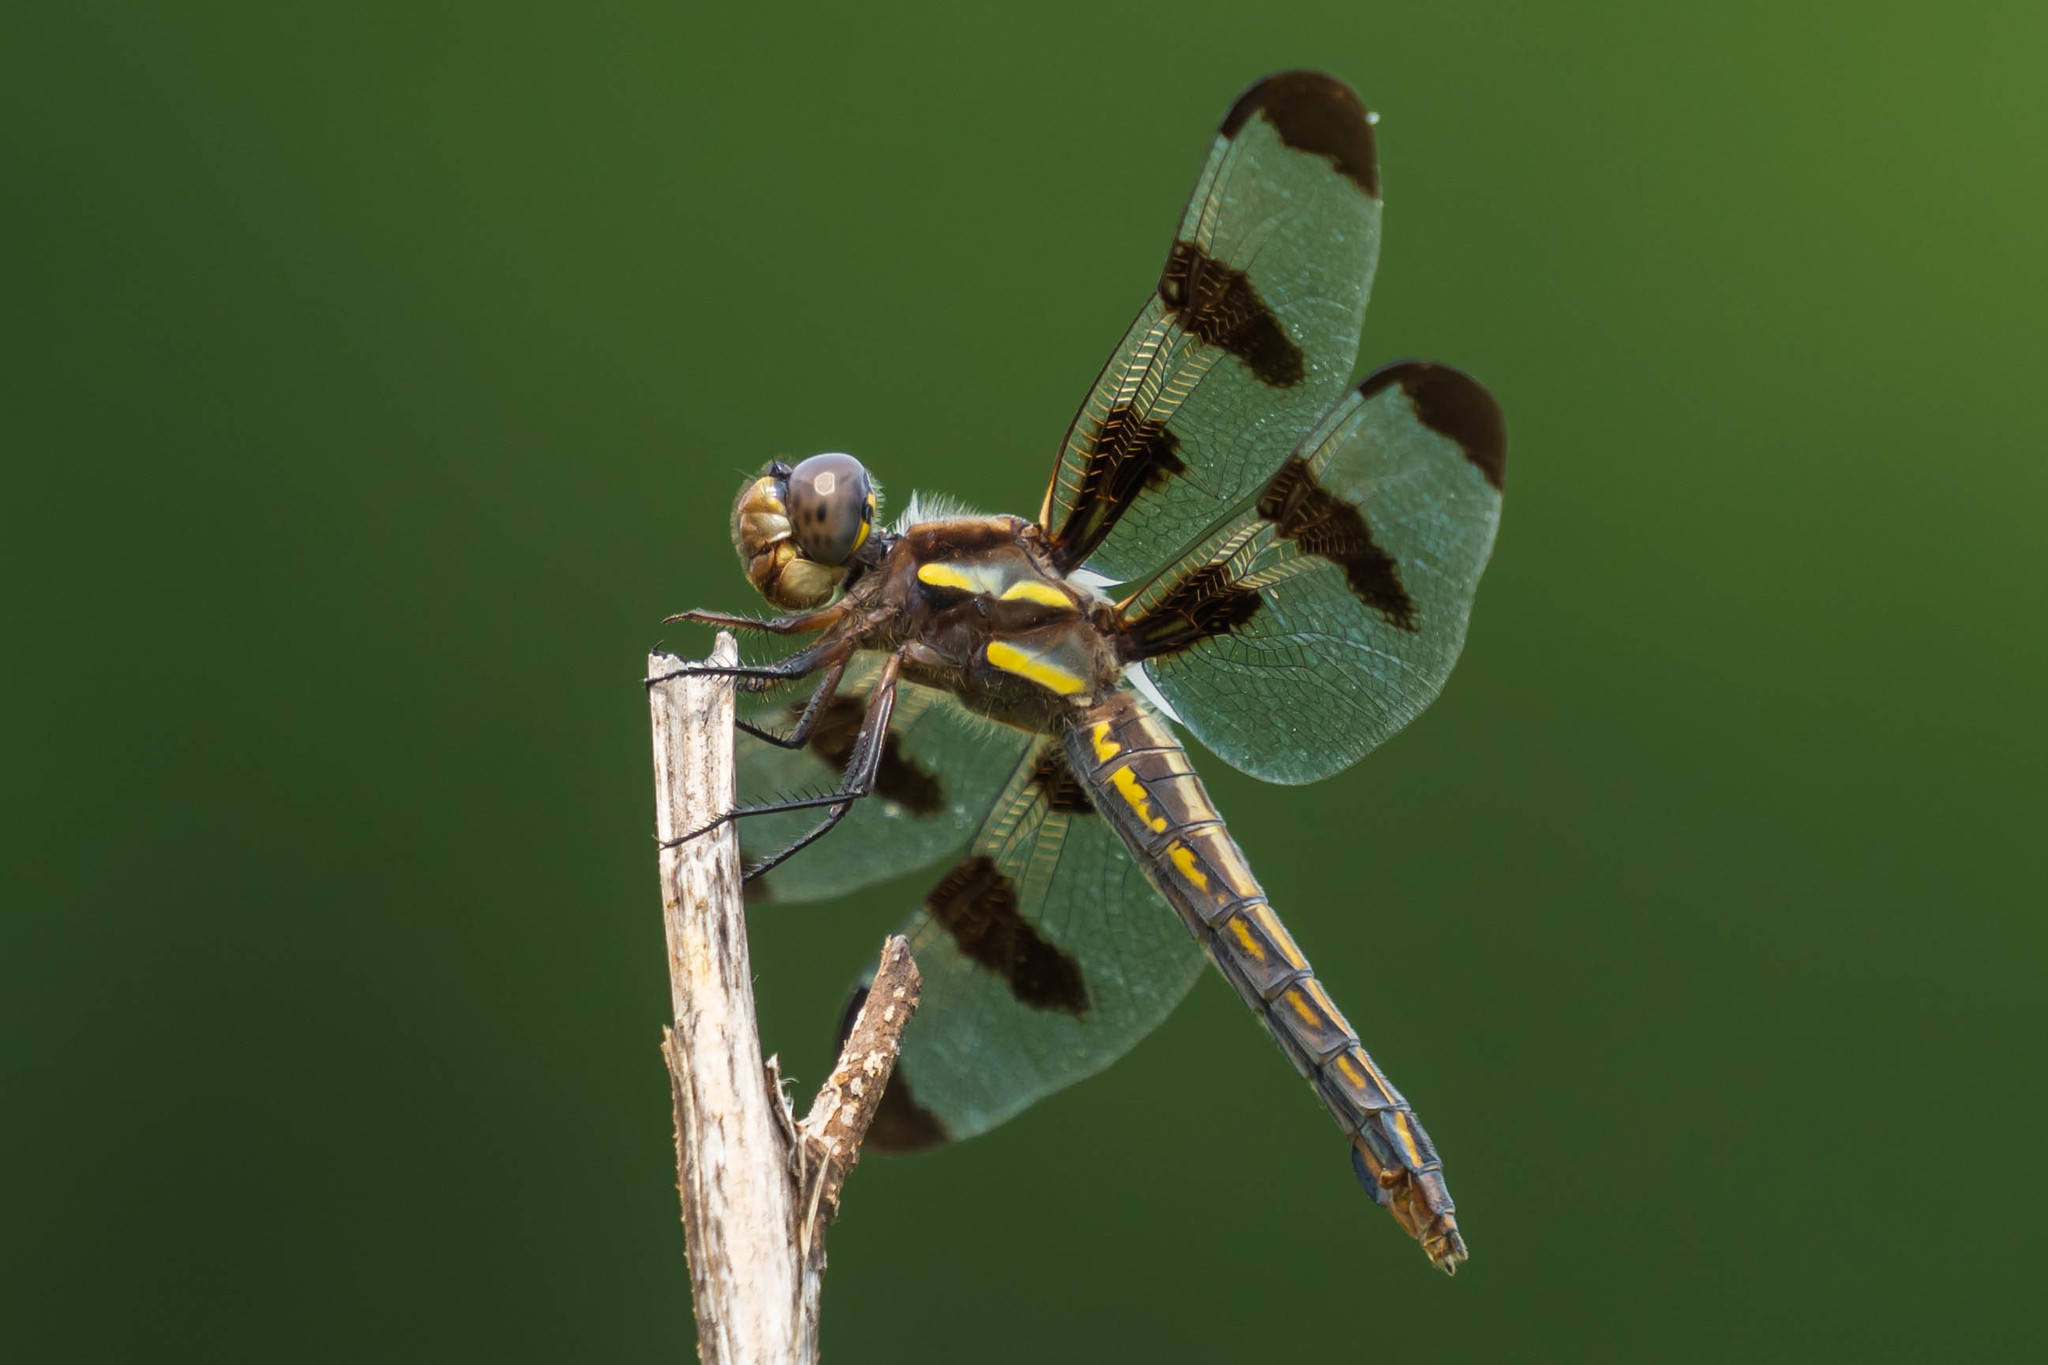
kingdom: Animalia
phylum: Arthropoda
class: Insecta
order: Odonata
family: Libellulidae
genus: Libellula
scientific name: Libellula pulchella
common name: Twelve-spotted skimmer
